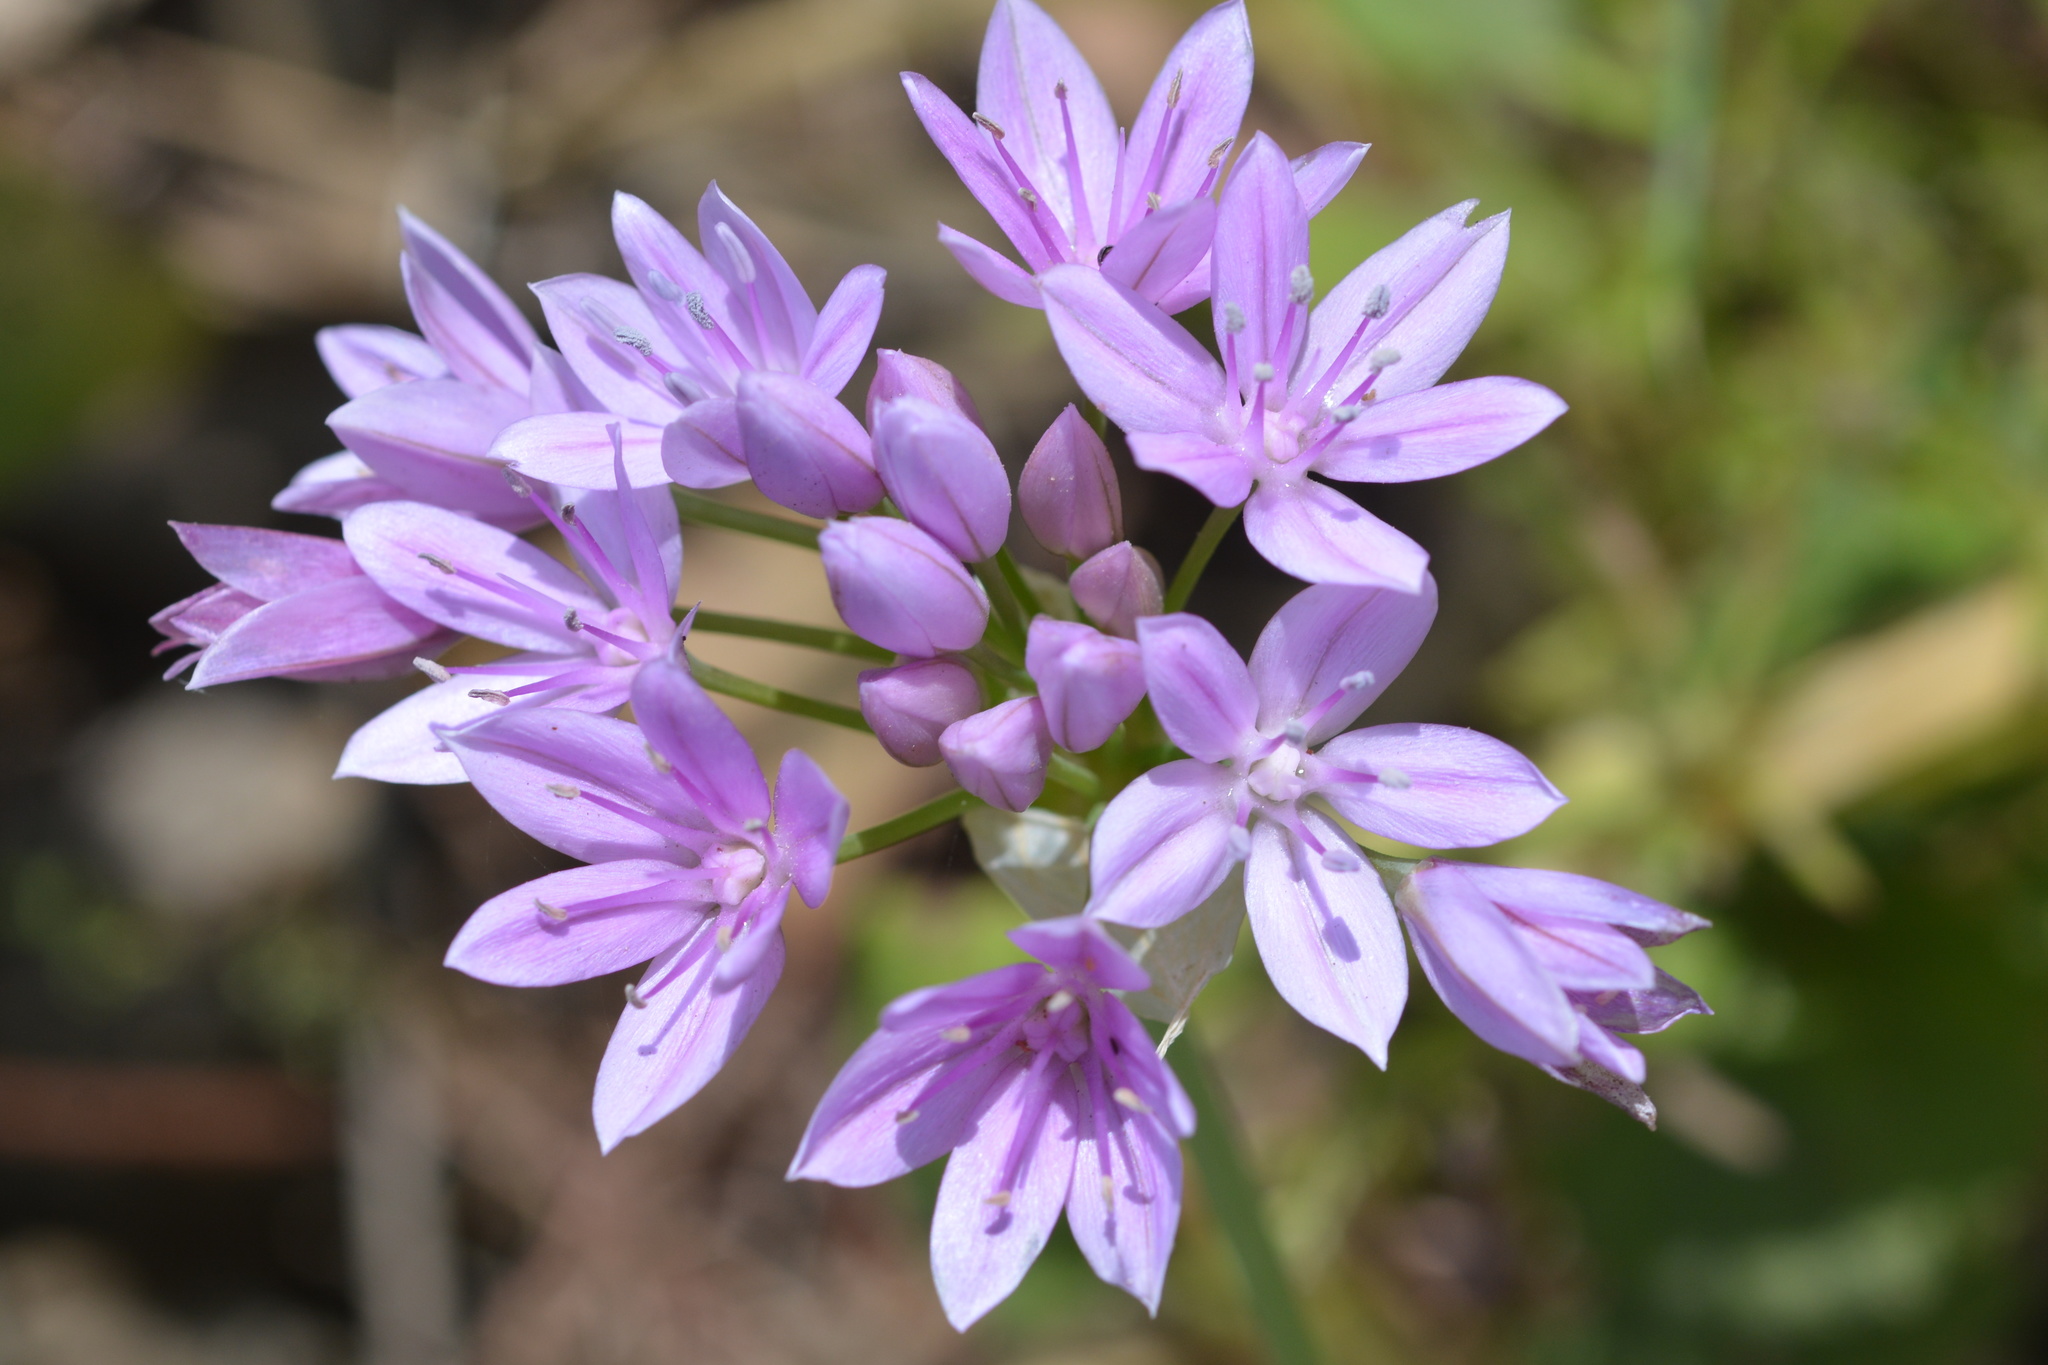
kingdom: Plantae
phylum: Tracheophyta
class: Liliopsida
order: Asparagales
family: Amaryllidaceae
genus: Allium
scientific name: Allium unifolium
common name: American garlic
